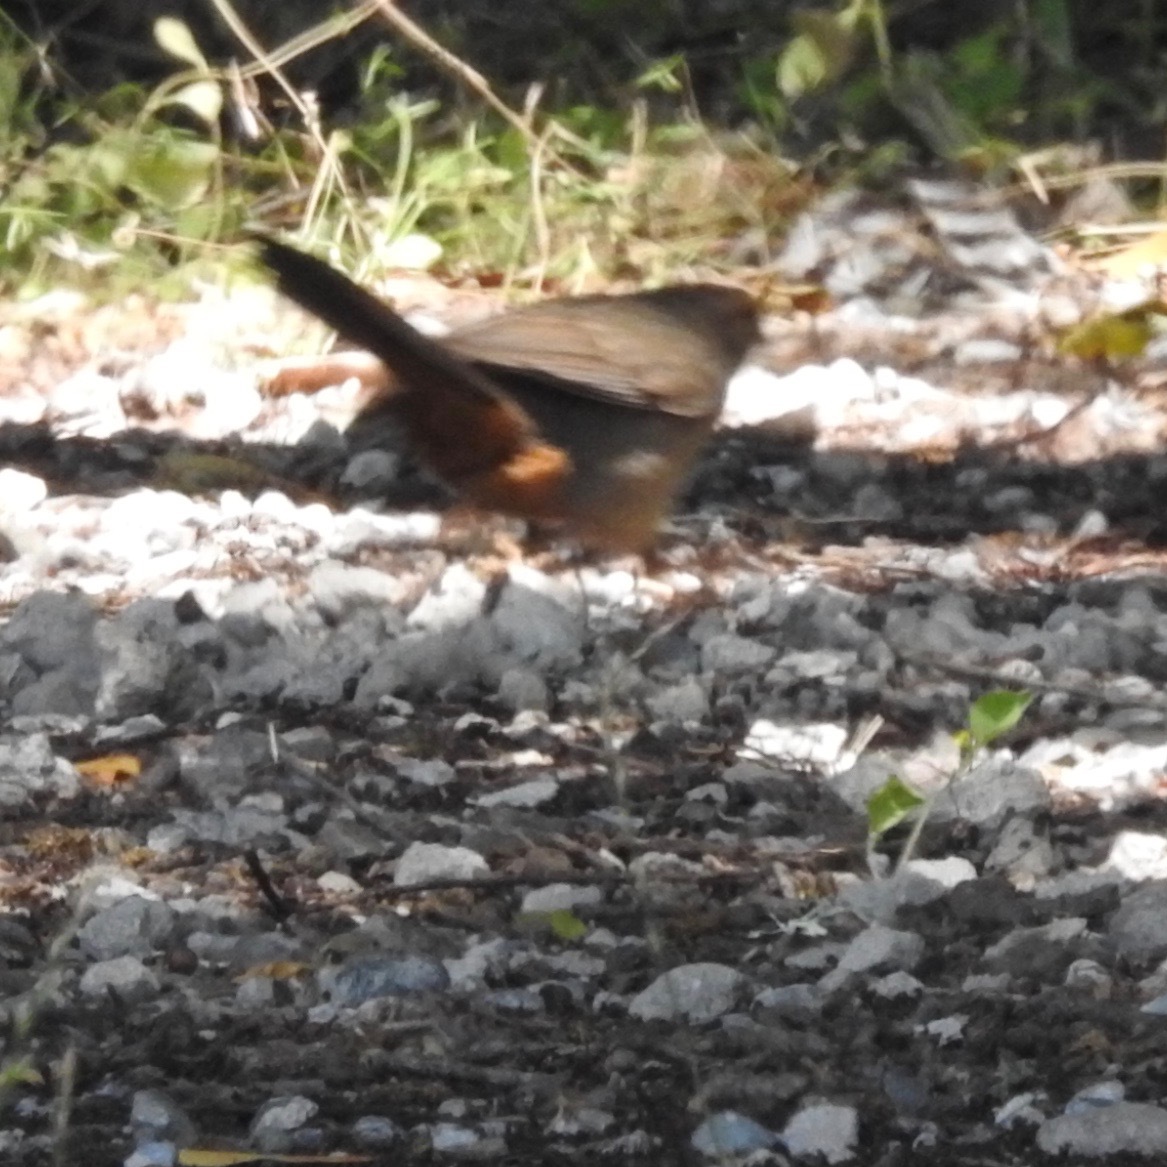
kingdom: Animalia
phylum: Chordata
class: Aves
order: Passeriformes
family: Passerellidae
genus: Melozone
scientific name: Melozone crissalis
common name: California towhee
